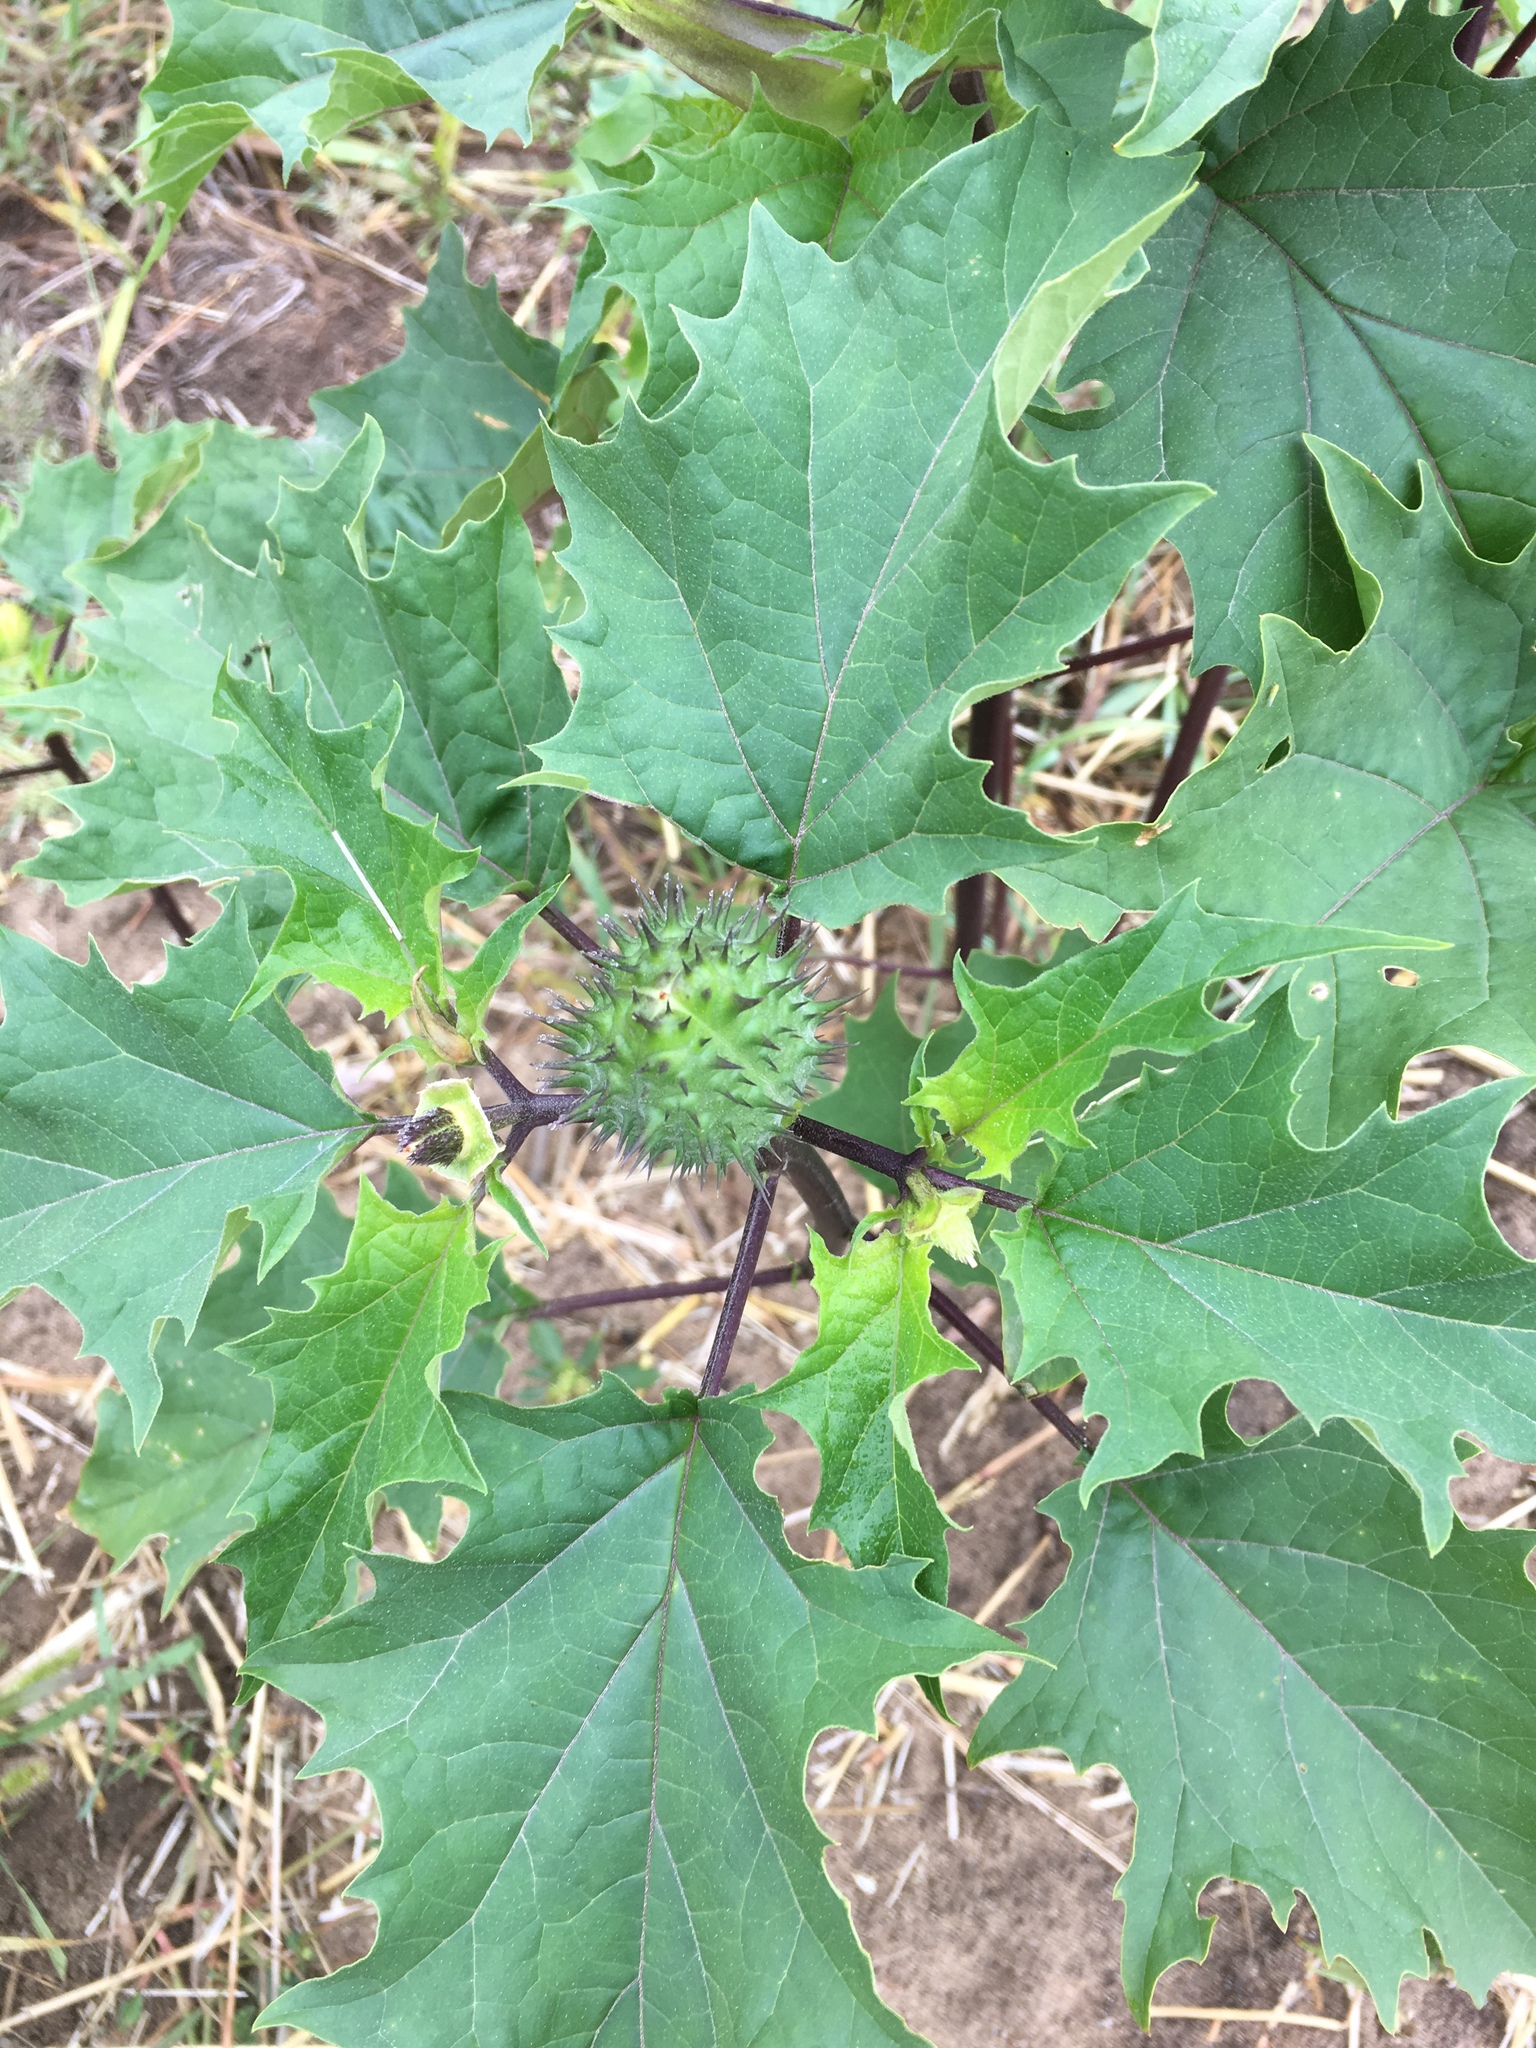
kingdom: Plantae
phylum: Tracheophyta
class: Magnoliopsida
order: Solanales
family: Solanaceae
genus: Datura
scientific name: Datura stramonium
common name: Thorn-apple
